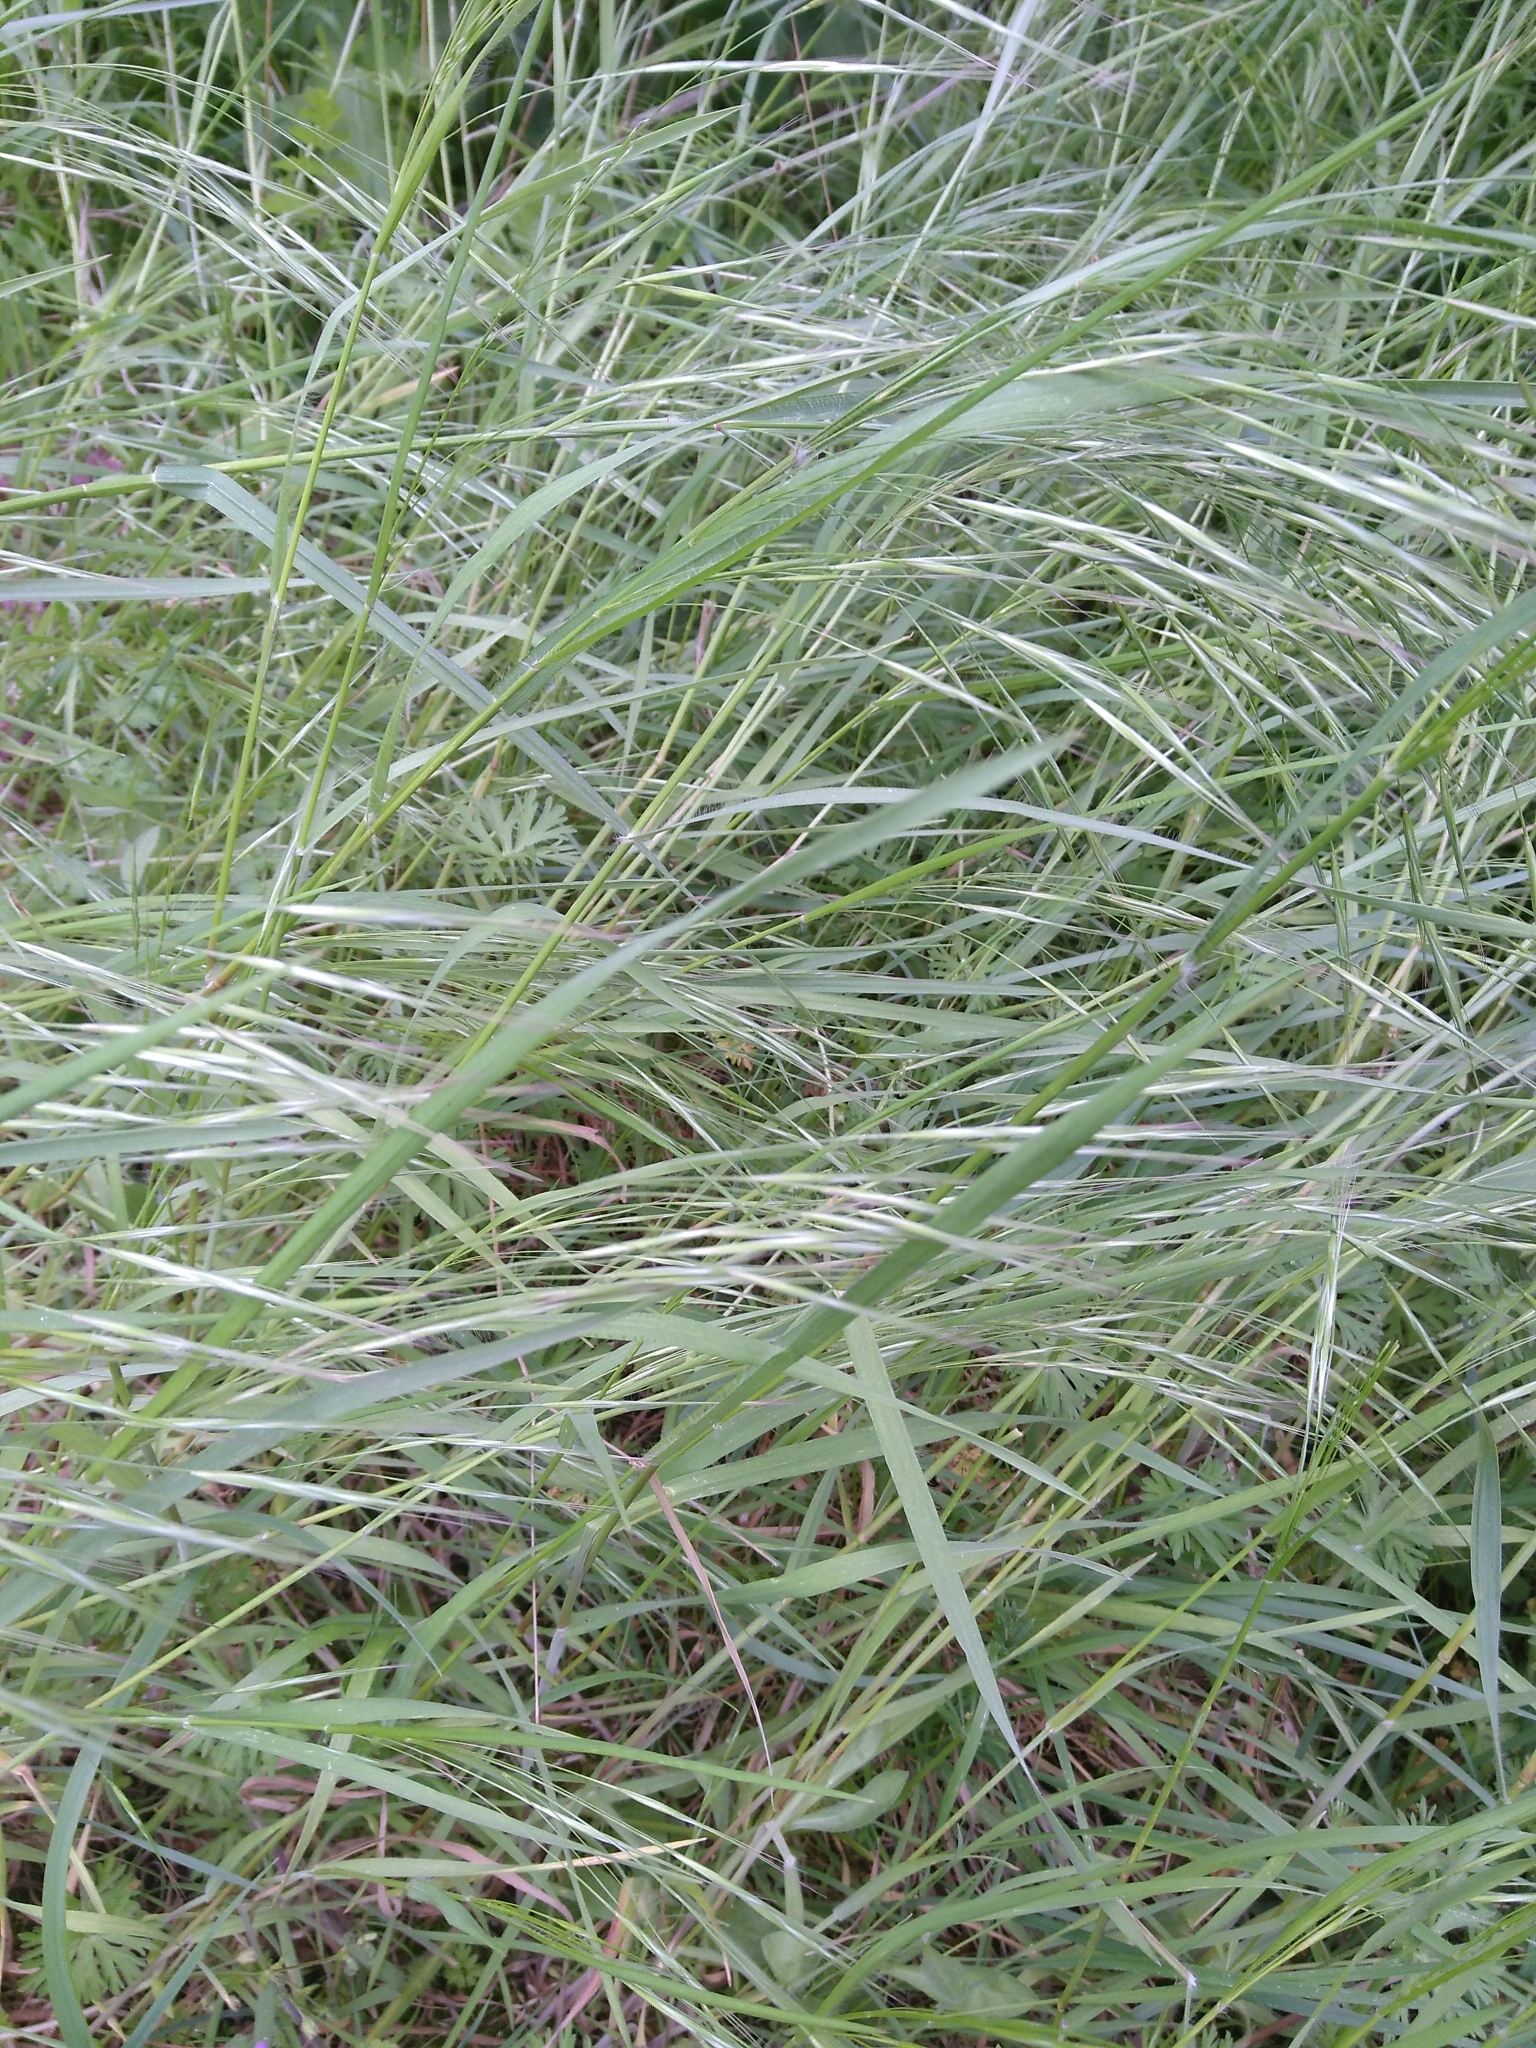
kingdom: Plantae
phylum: Tracheophyta
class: Liliopsida
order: Poales
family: Poaceae
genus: Bromus
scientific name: Bromus sterilis
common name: Poverty brome
